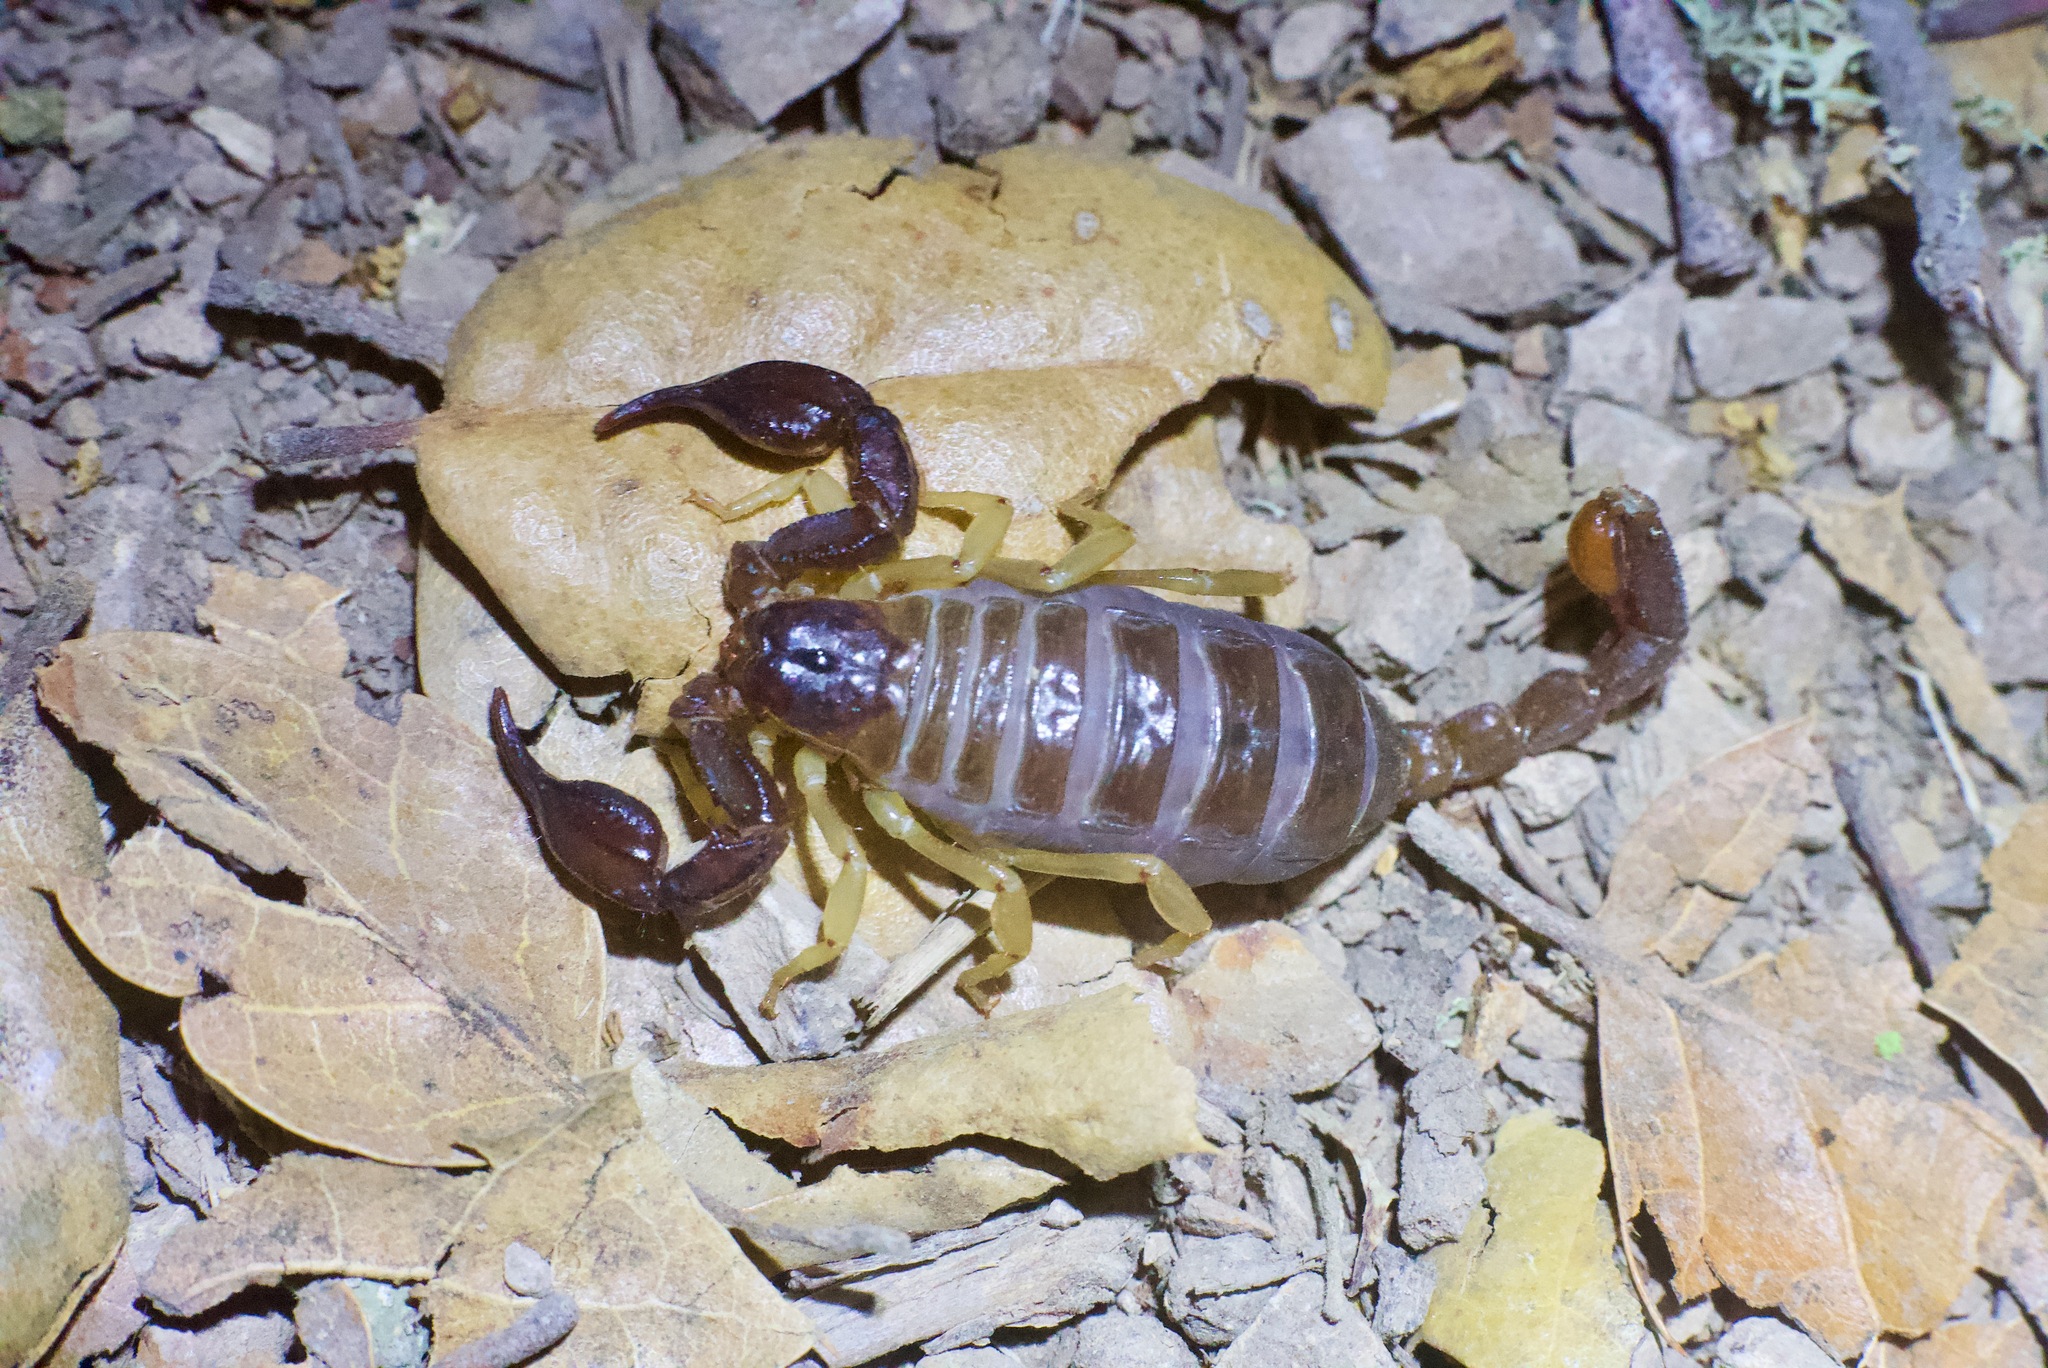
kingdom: Animalia
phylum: Arthropoda
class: Arachnida
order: Scorpiones
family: Chactidae
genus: Uroctonus
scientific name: Uroctonus mordax
